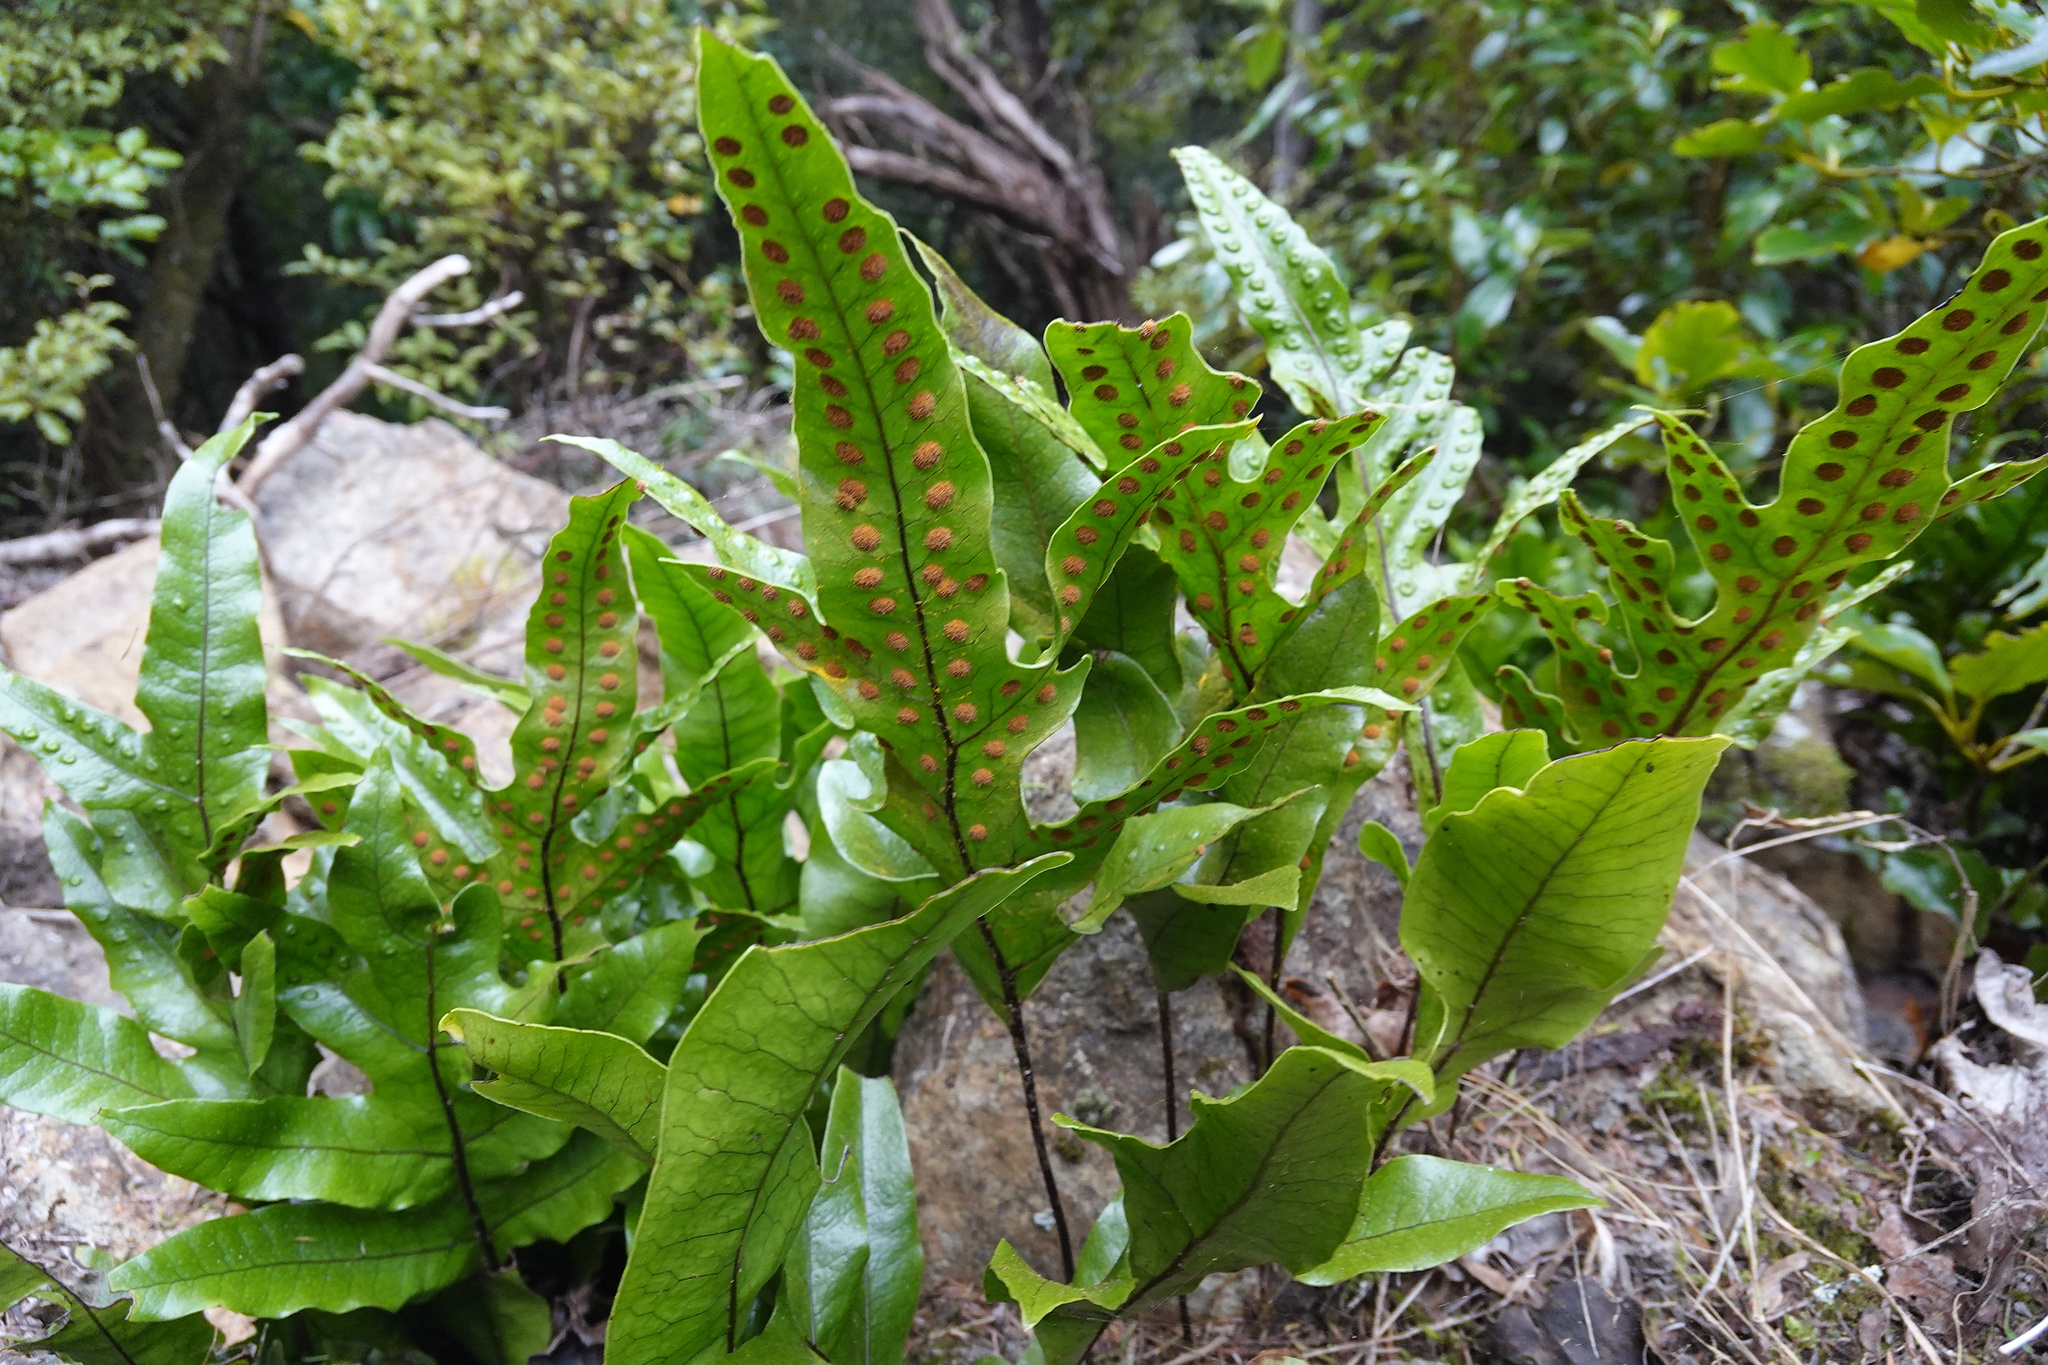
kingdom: Plantae
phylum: Tracheophyta
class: Polypodiopsida
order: Polypodiales
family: Polypodiaceae
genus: Lecanopteris
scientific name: Lecanopteris pustulata
